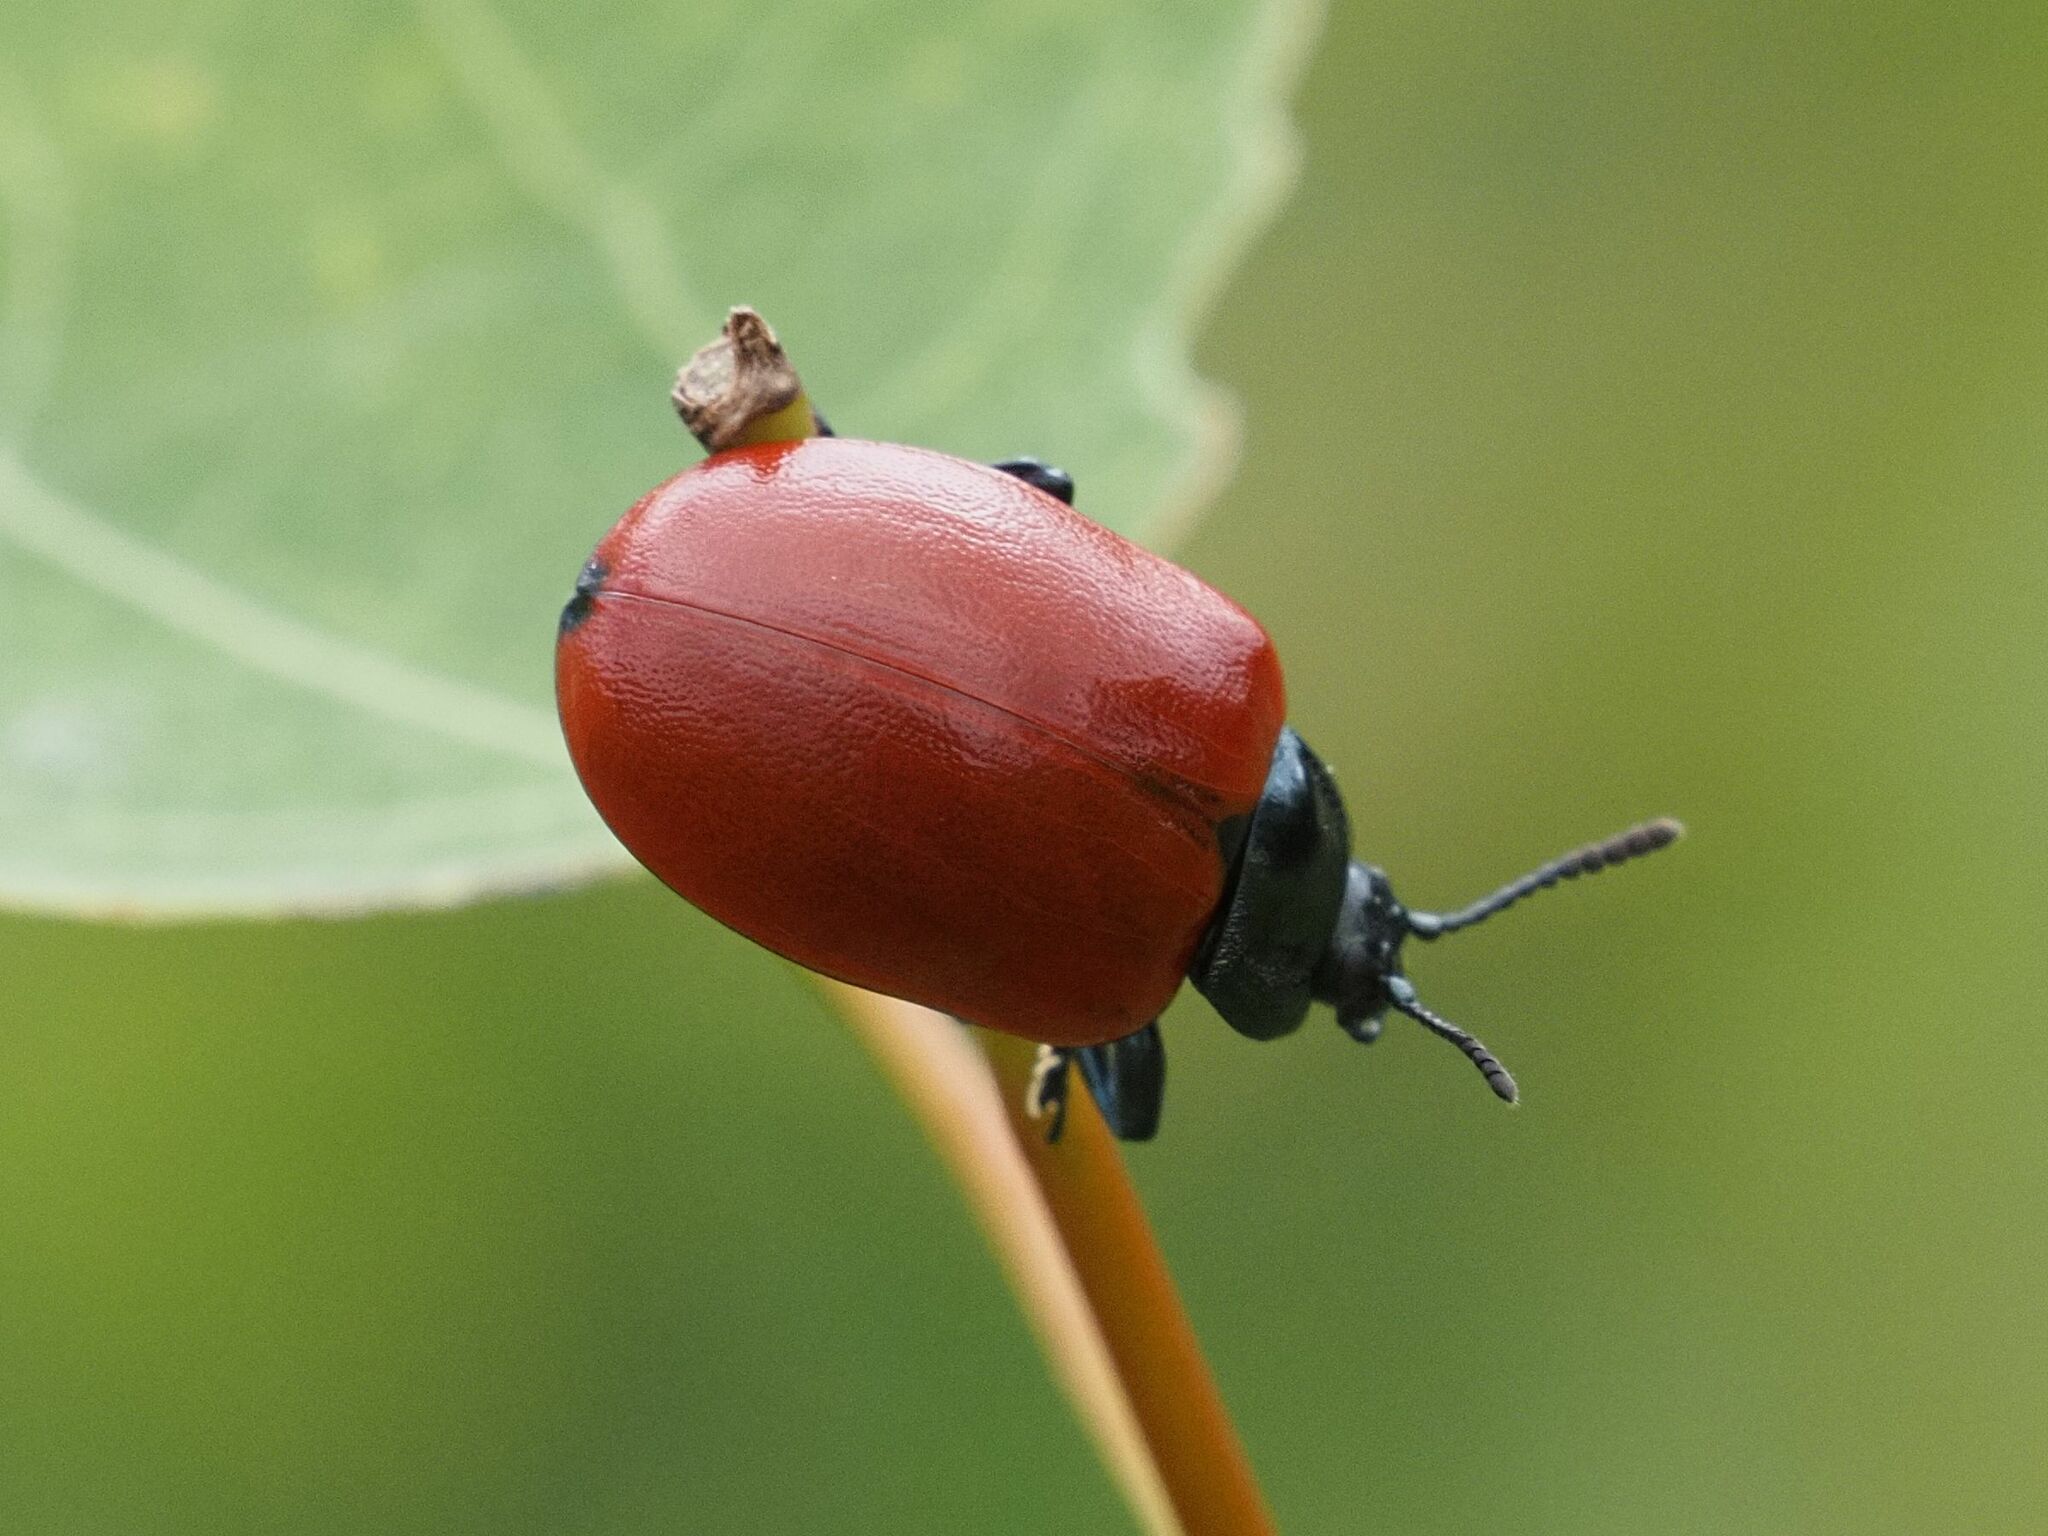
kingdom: Animalia
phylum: Arthropoda
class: Insecta
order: Coleoptera
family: Chrysomelidae
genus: Chrysomela
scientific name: Chrysomela populi
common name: Red poplar leaf beetle
